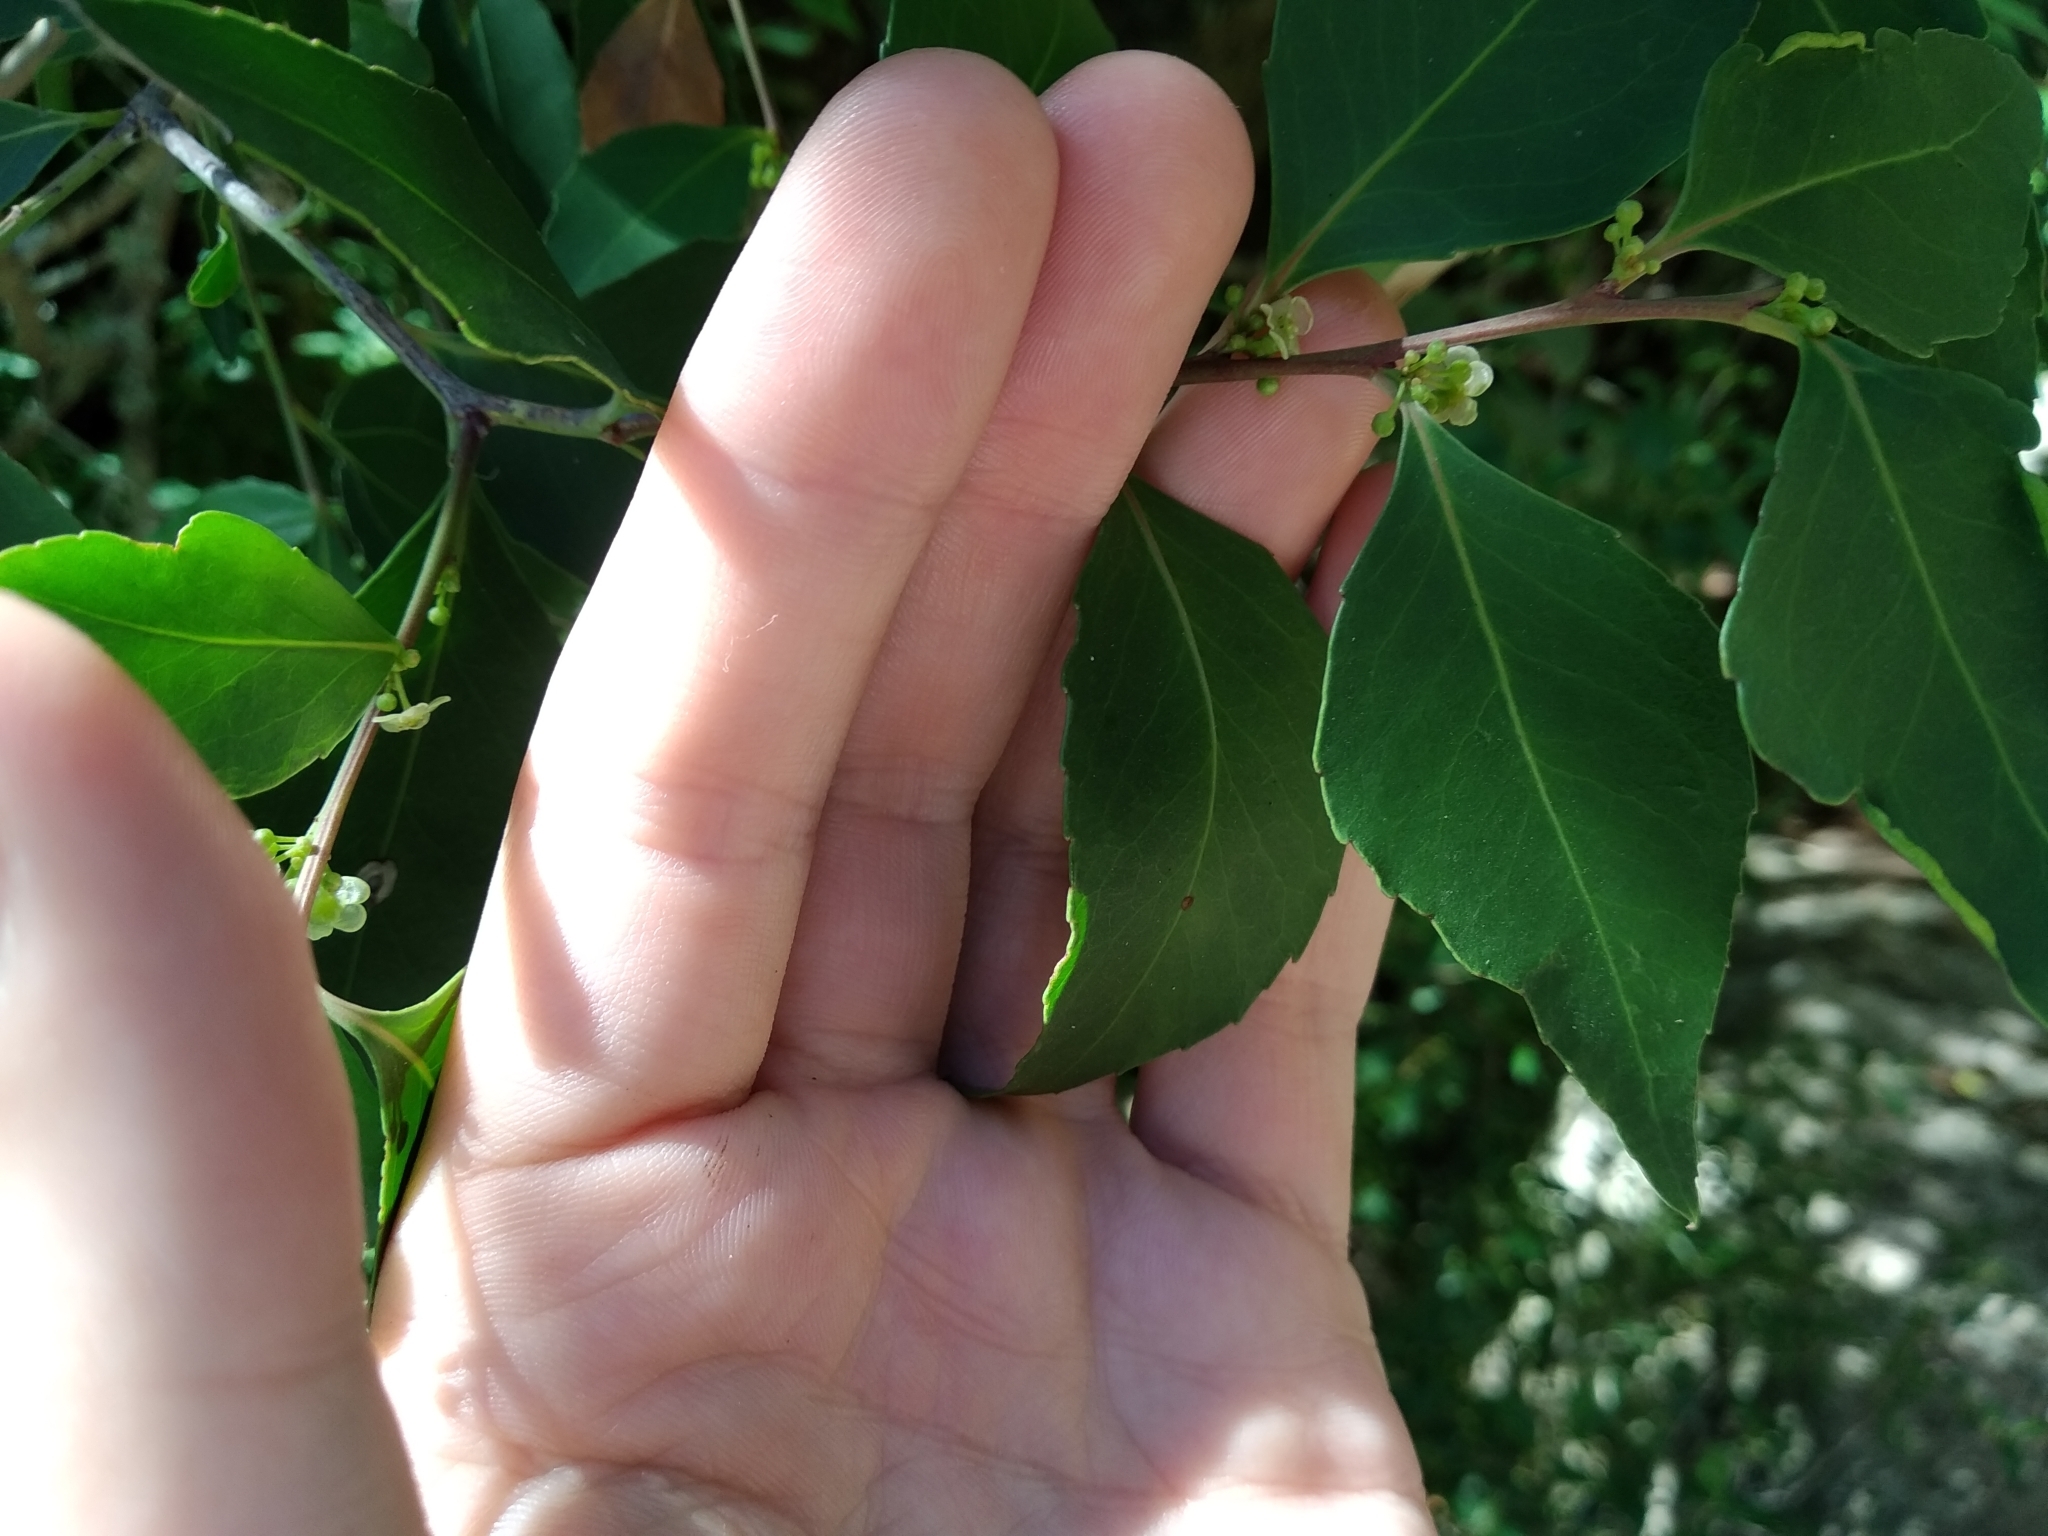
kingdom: Plantae
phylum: Tracheophyta
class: Magnoliopsida
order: Celastrales
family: Celastraceae
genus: Gymnosporia
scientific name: Gymnosporia acuminata
